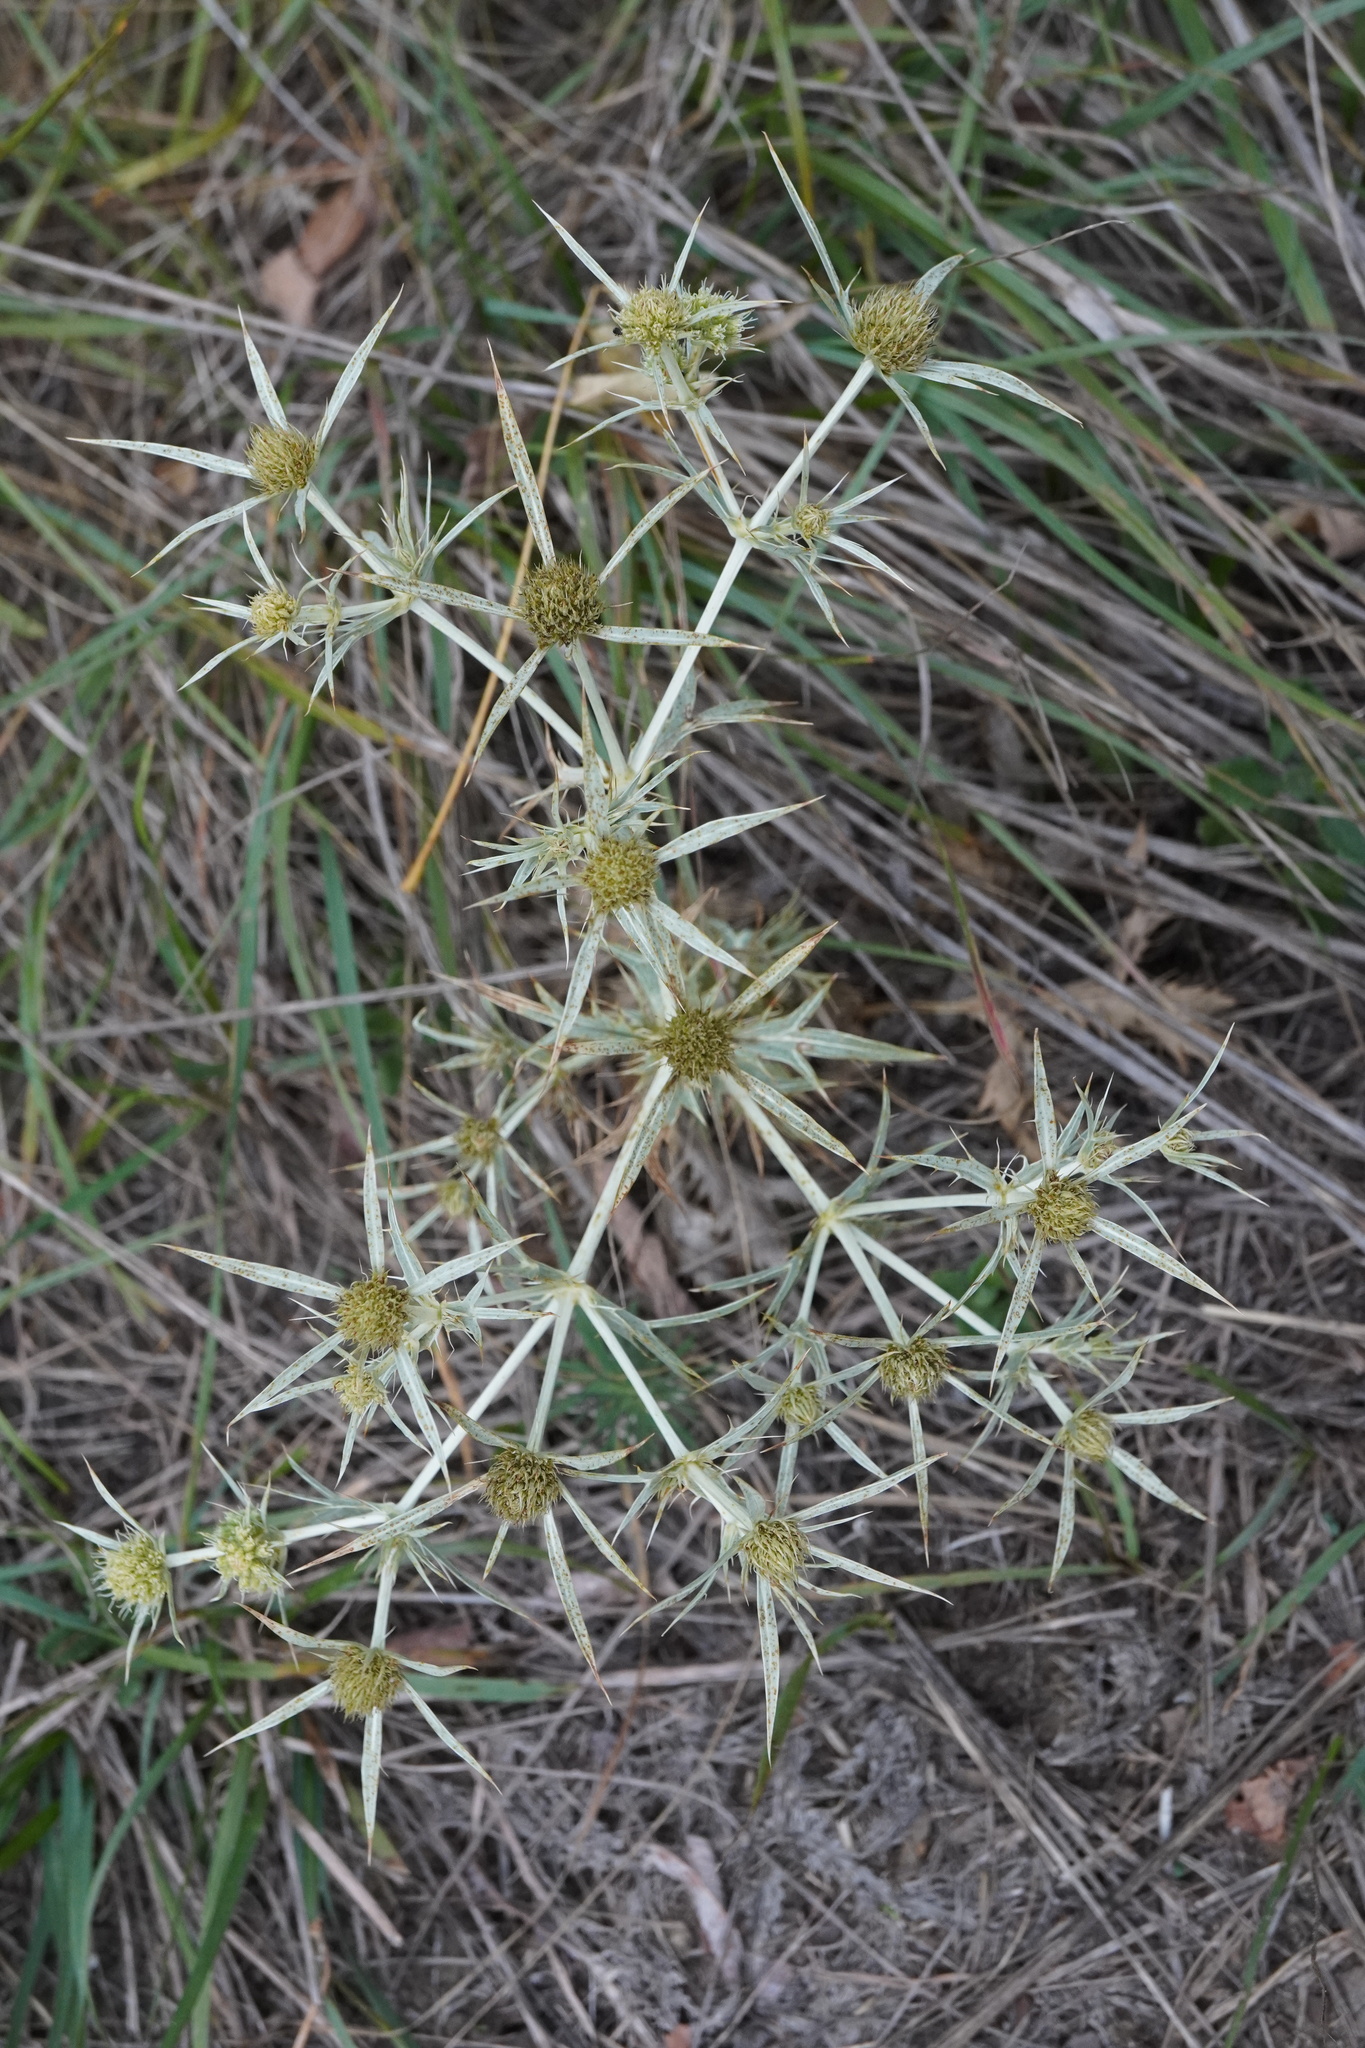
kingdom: Plantae
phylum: Tracheophyta
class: Magnoliopsida
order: Apiales
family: Apiaceae
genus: Eryngium
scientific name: Eryngium campestre
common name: Field eryngo
